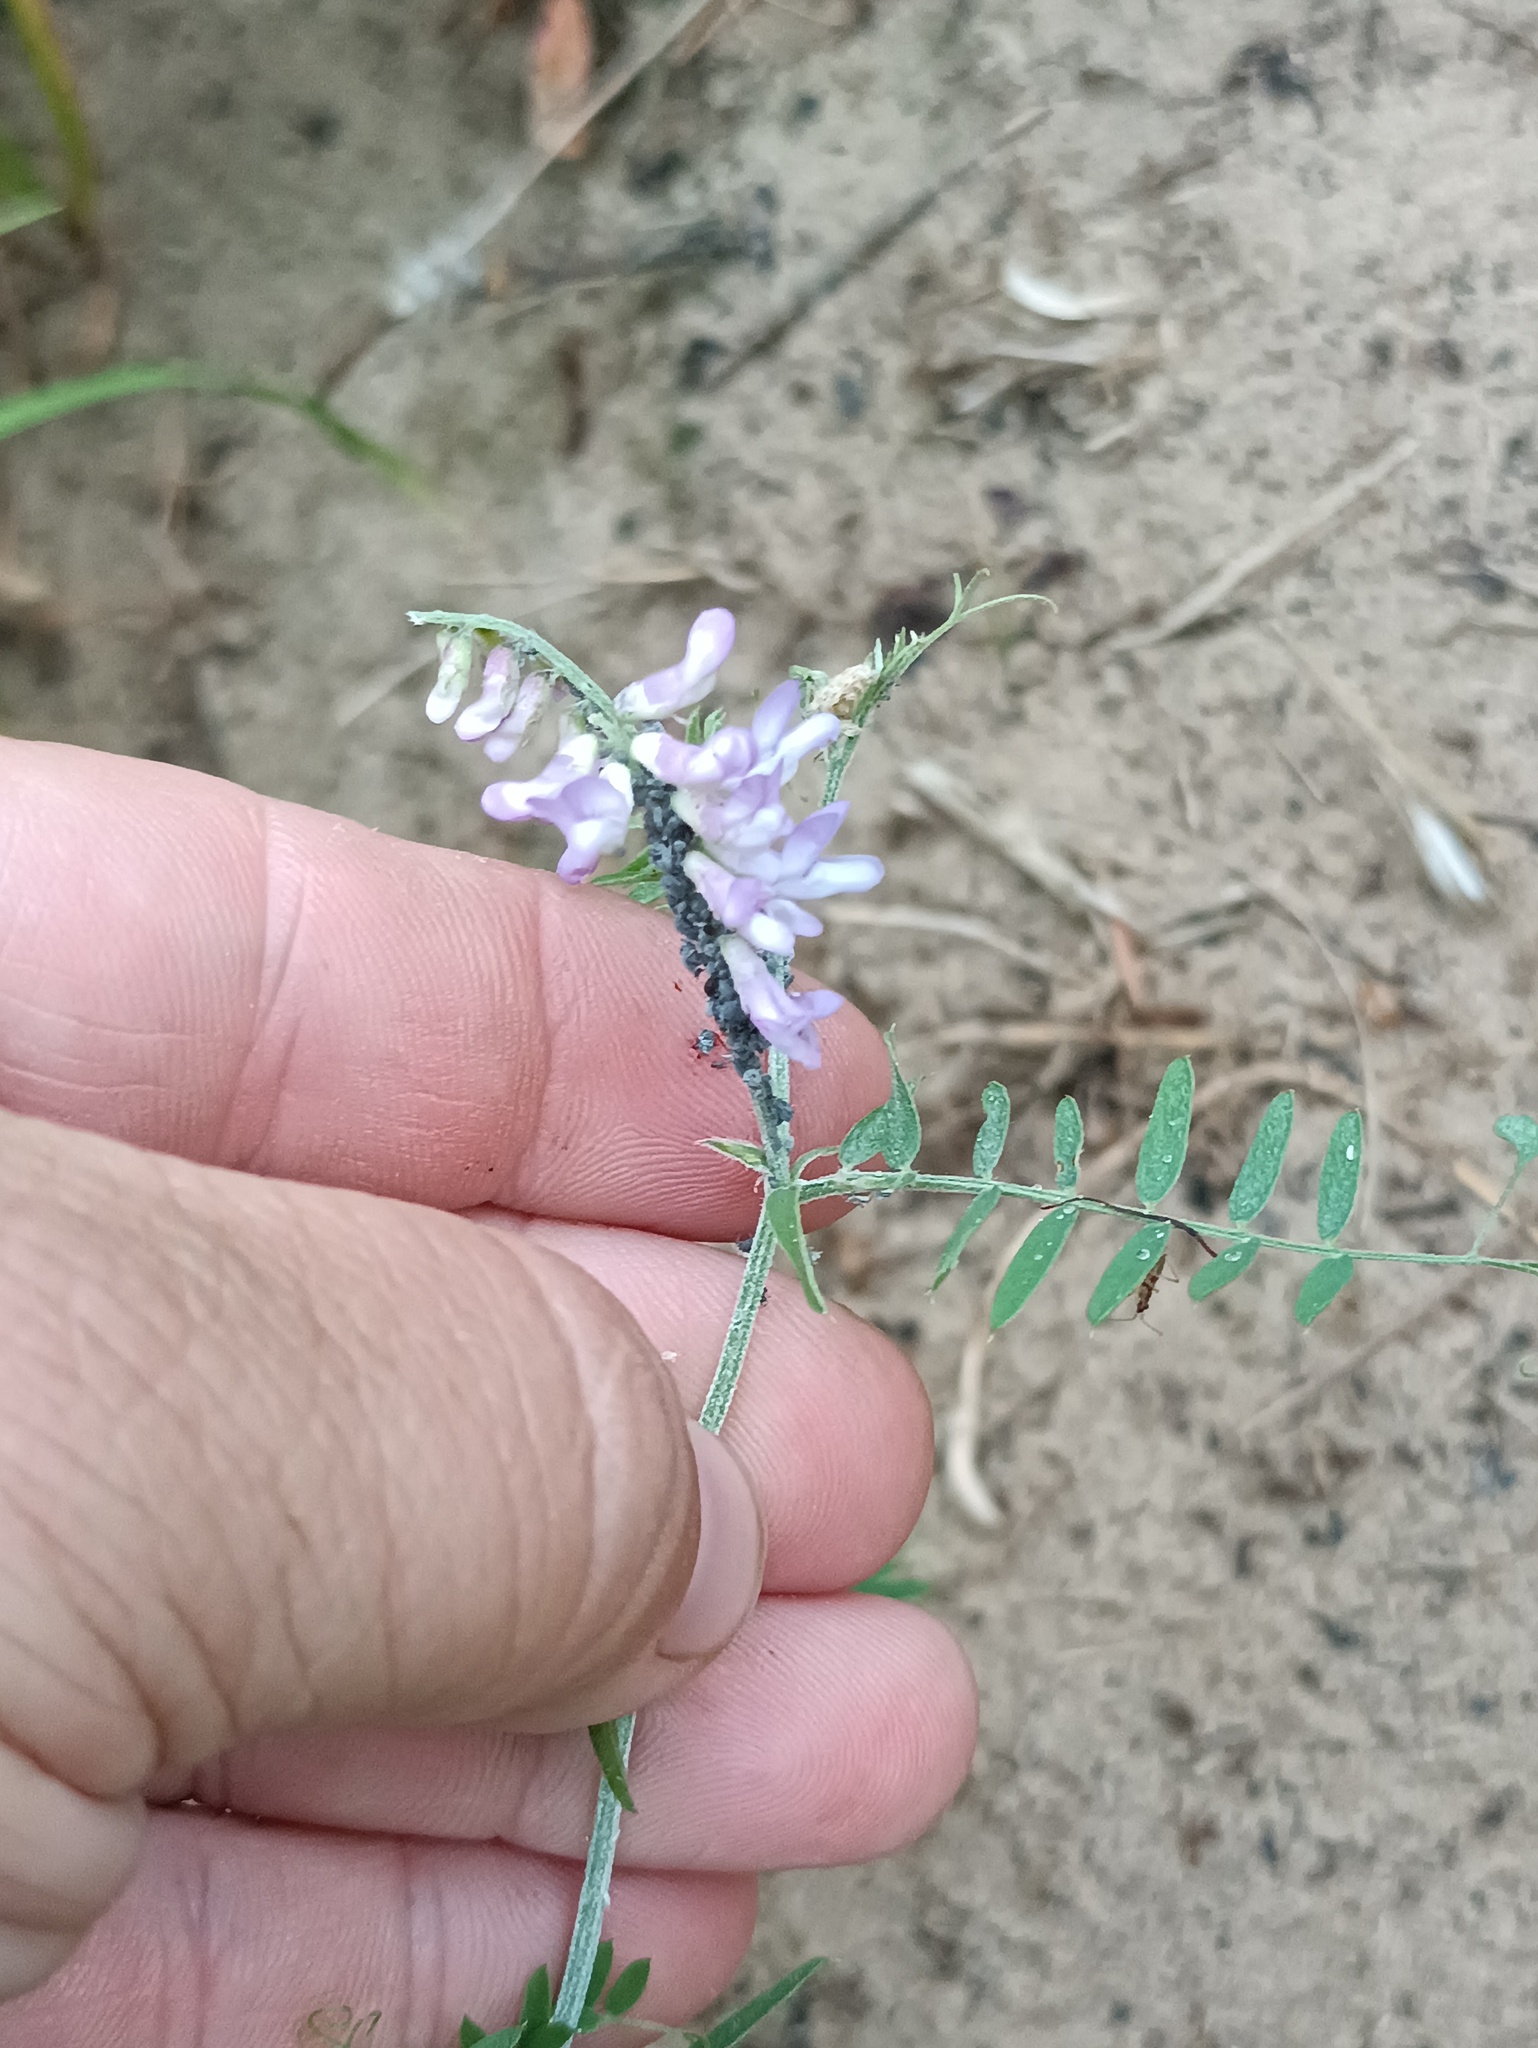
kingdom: Plantae
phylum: Tracheophyta
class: Magnoliopsida
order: Fabales
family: Fabaceae
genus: Vicia
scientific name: Vicia cracca
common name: Bird vetch
